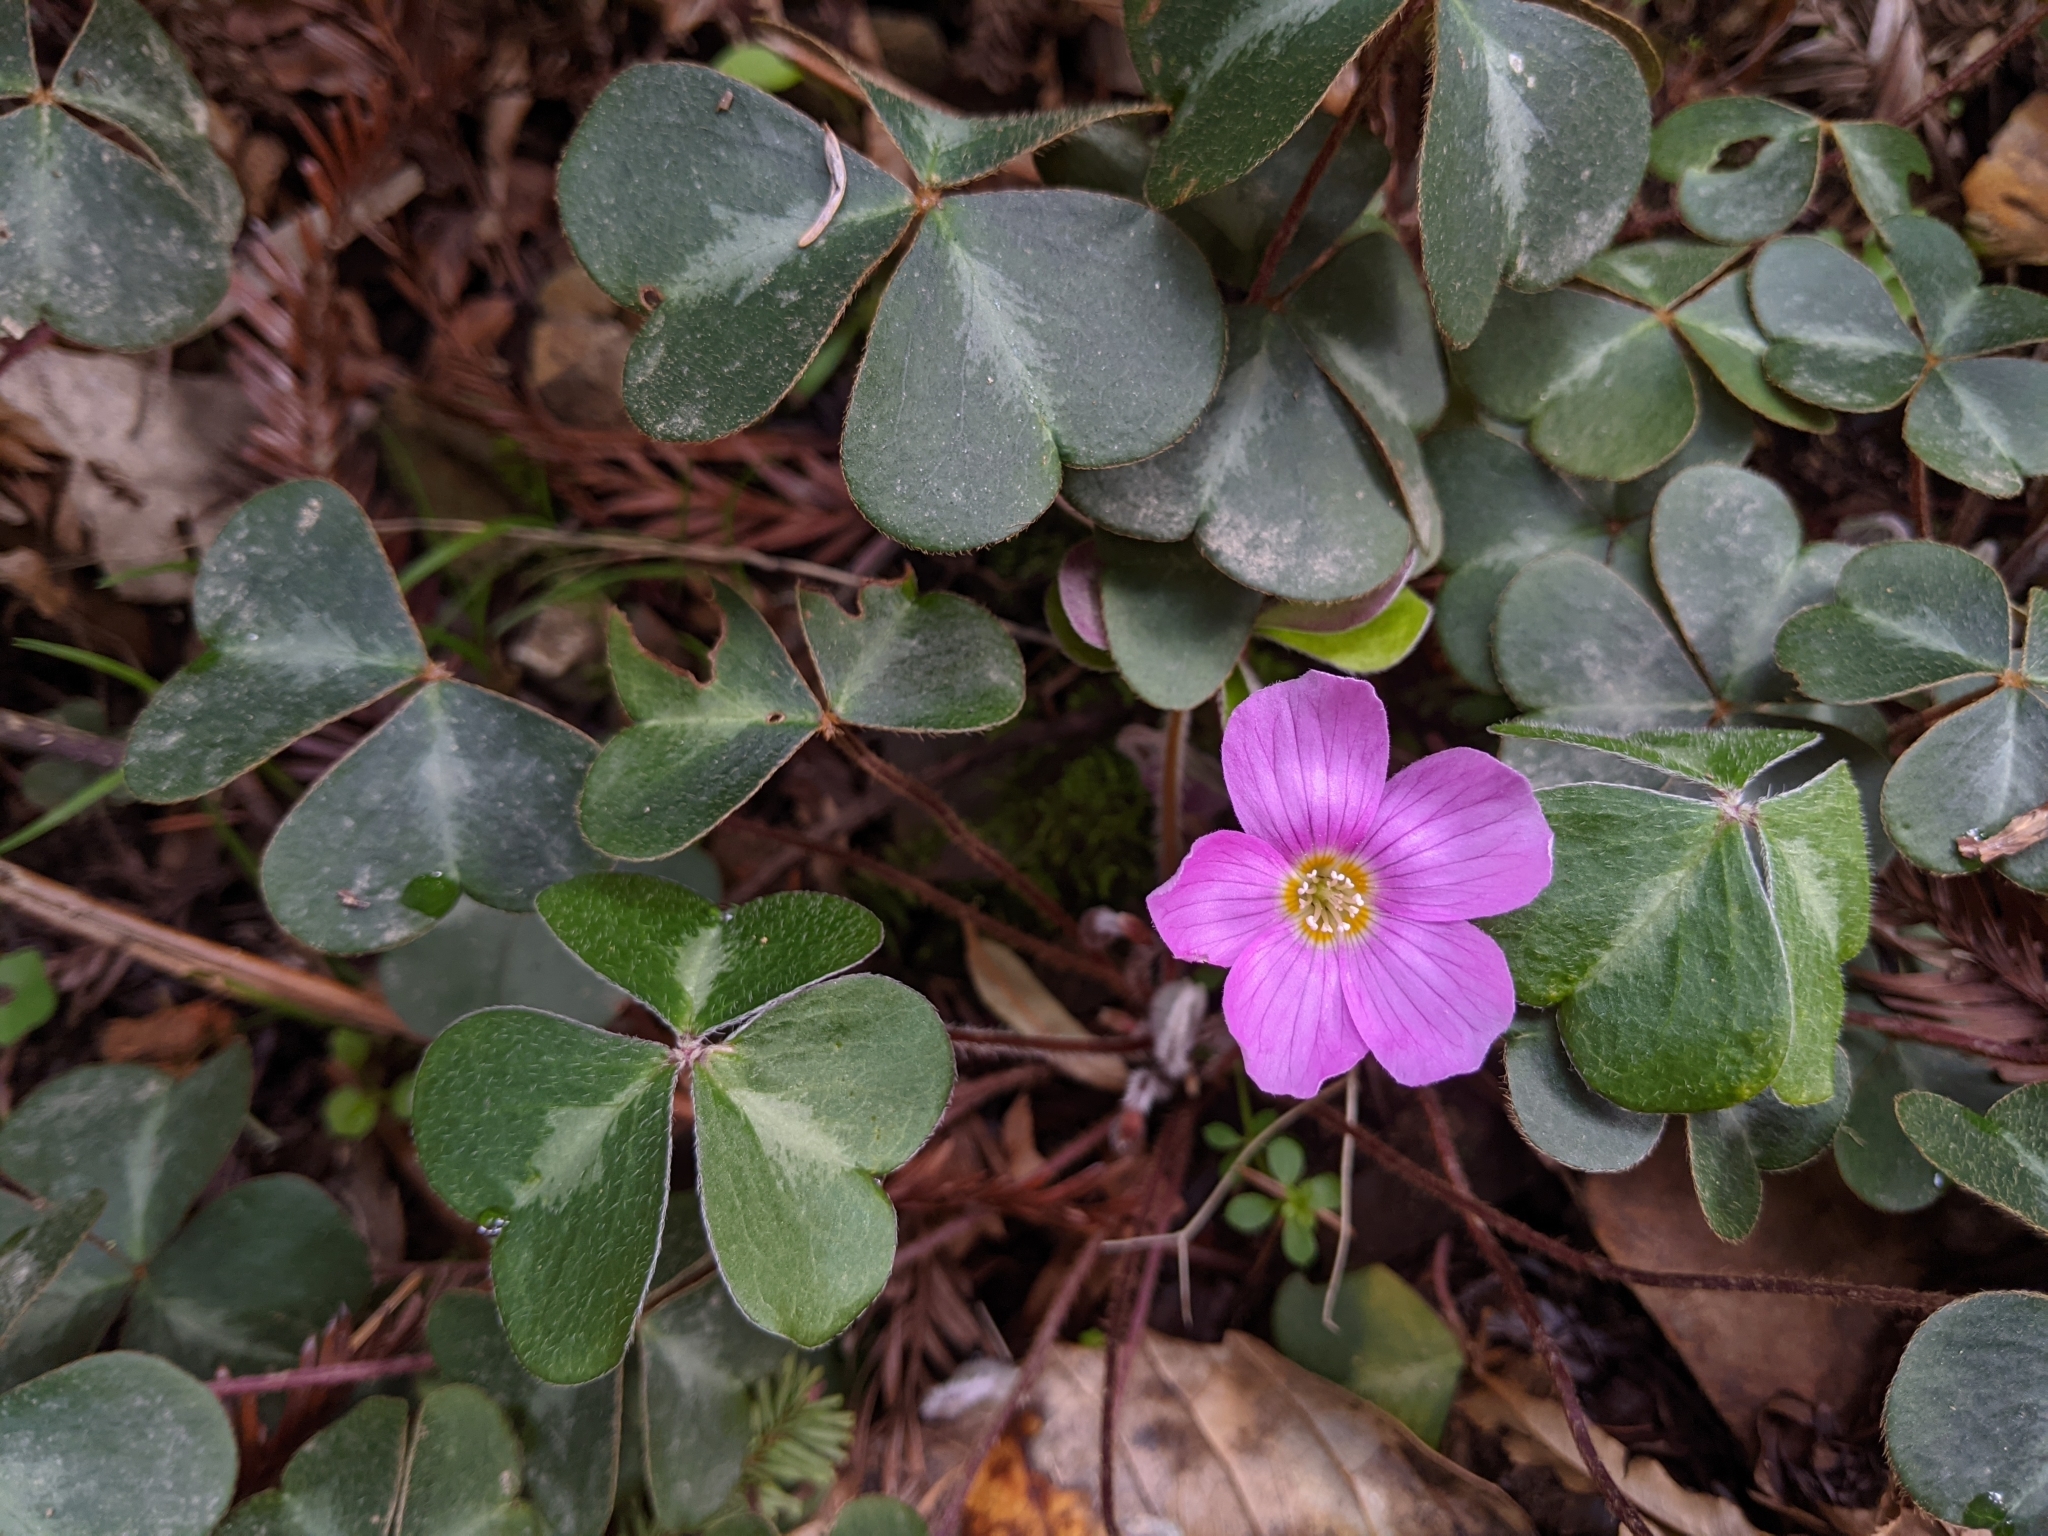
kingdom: Plantae
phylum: Tracheophyta
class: Magnoliopsida
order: Oxalidales
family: Oxalidaceae
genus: Oxalis
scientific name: Oxalis oregana
